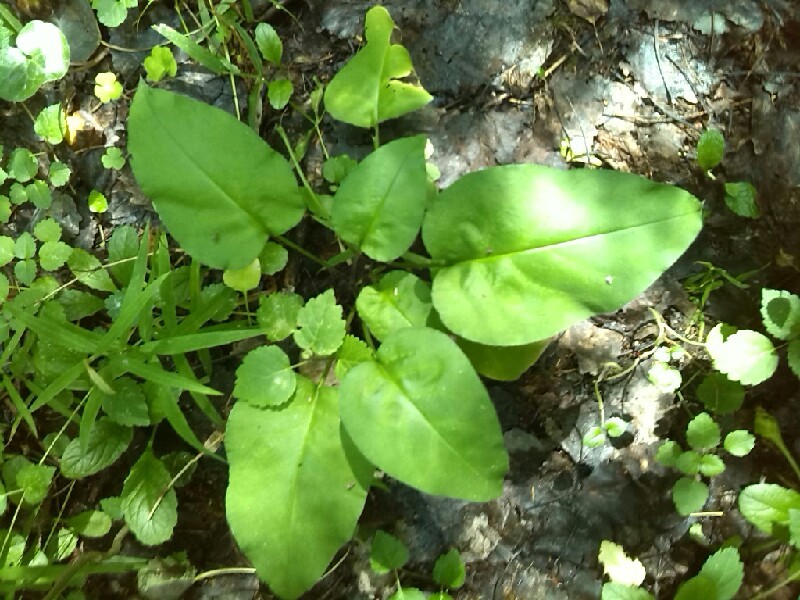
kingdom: Plantae
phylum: Tracheophyta
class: Magnoliopsida
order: Boraginales
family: Boraginaceae
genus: Pulmonaria
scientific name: Pulmonaria obscura
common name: Suffolk lungwort
